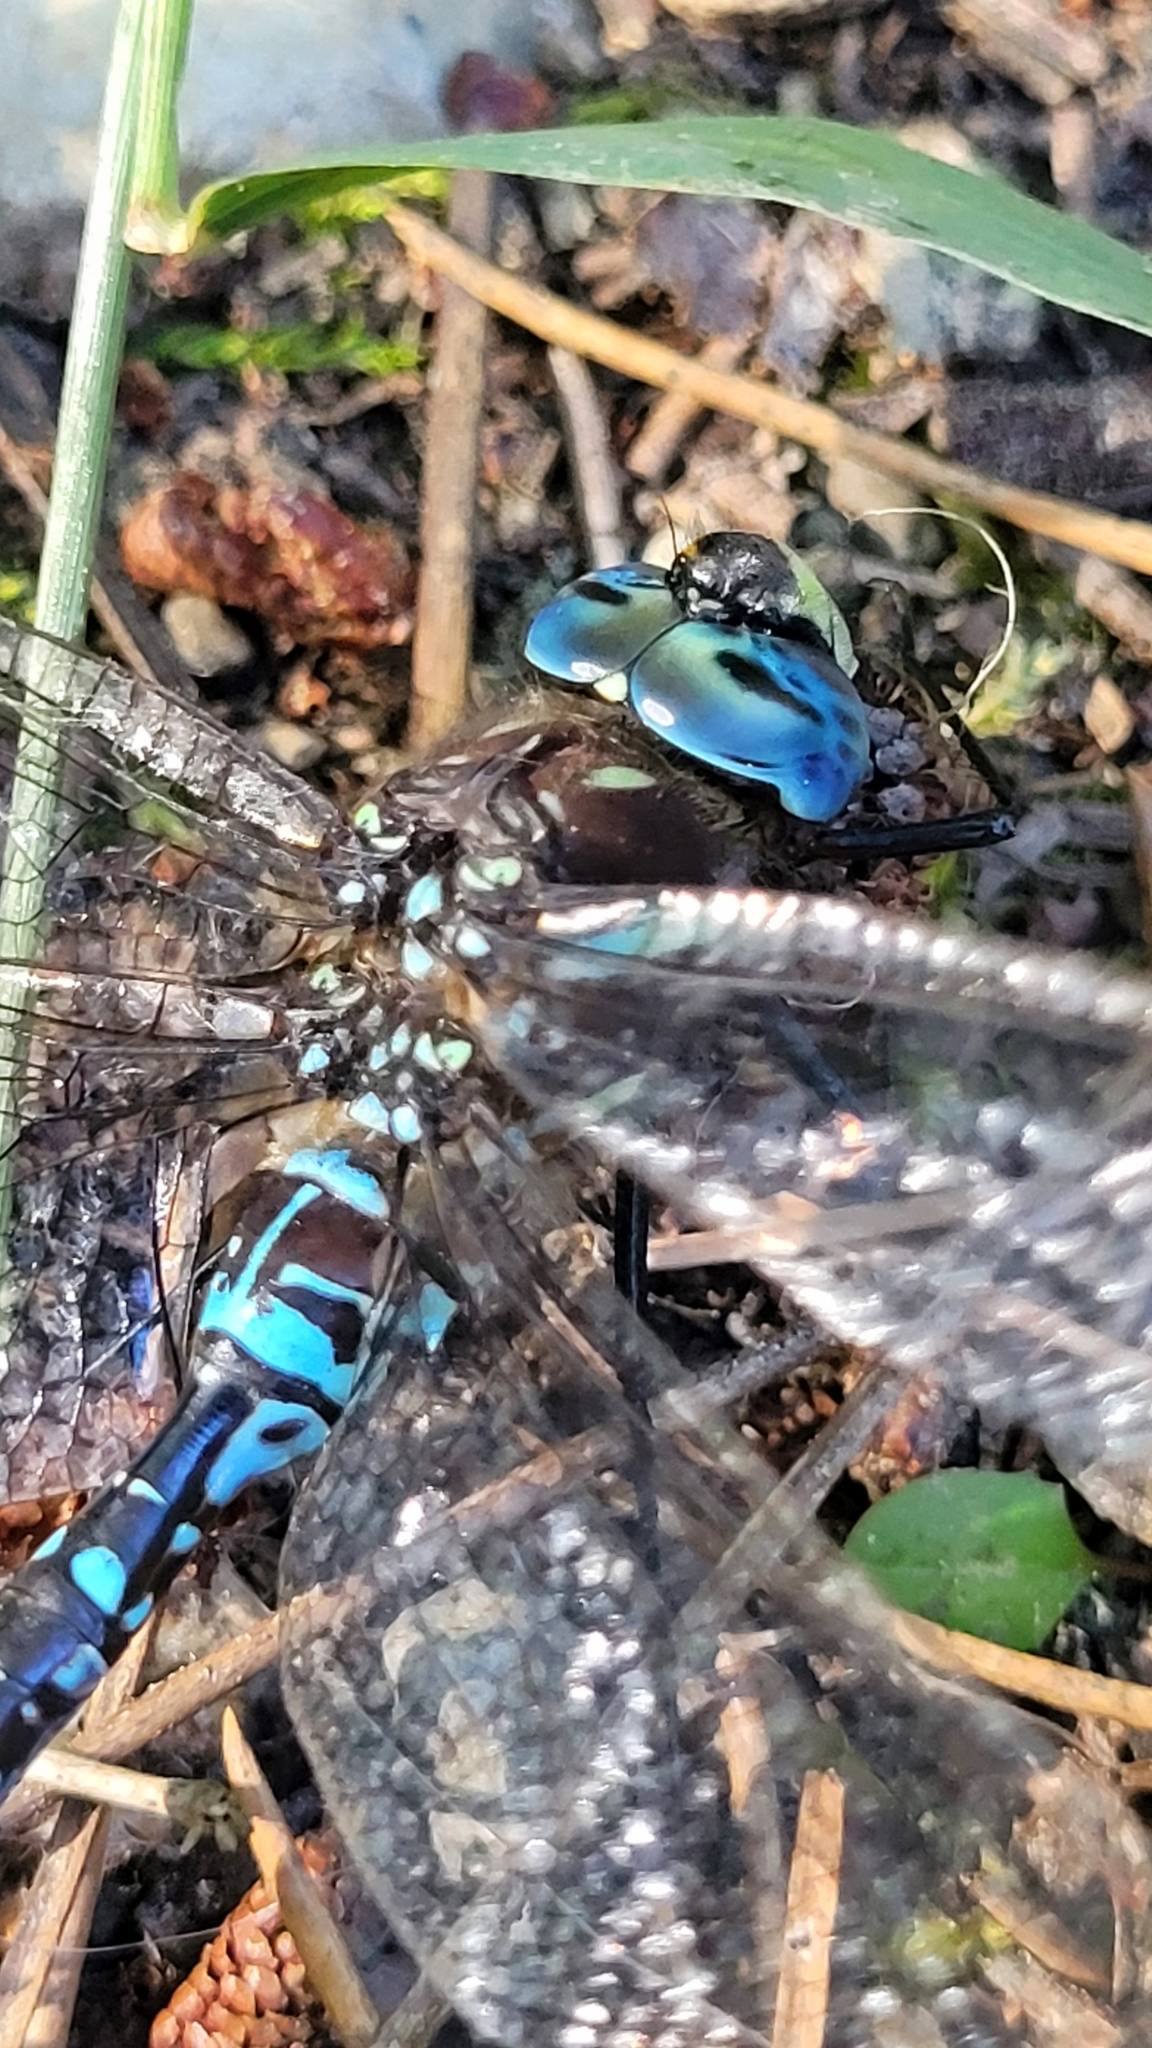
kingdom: Animalia
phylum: Arthropoda
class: Insecta
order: Odonata
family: Aeshnidae
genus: Aeshna
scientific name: Aeshna palmata
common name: Paddle-tailed darner
